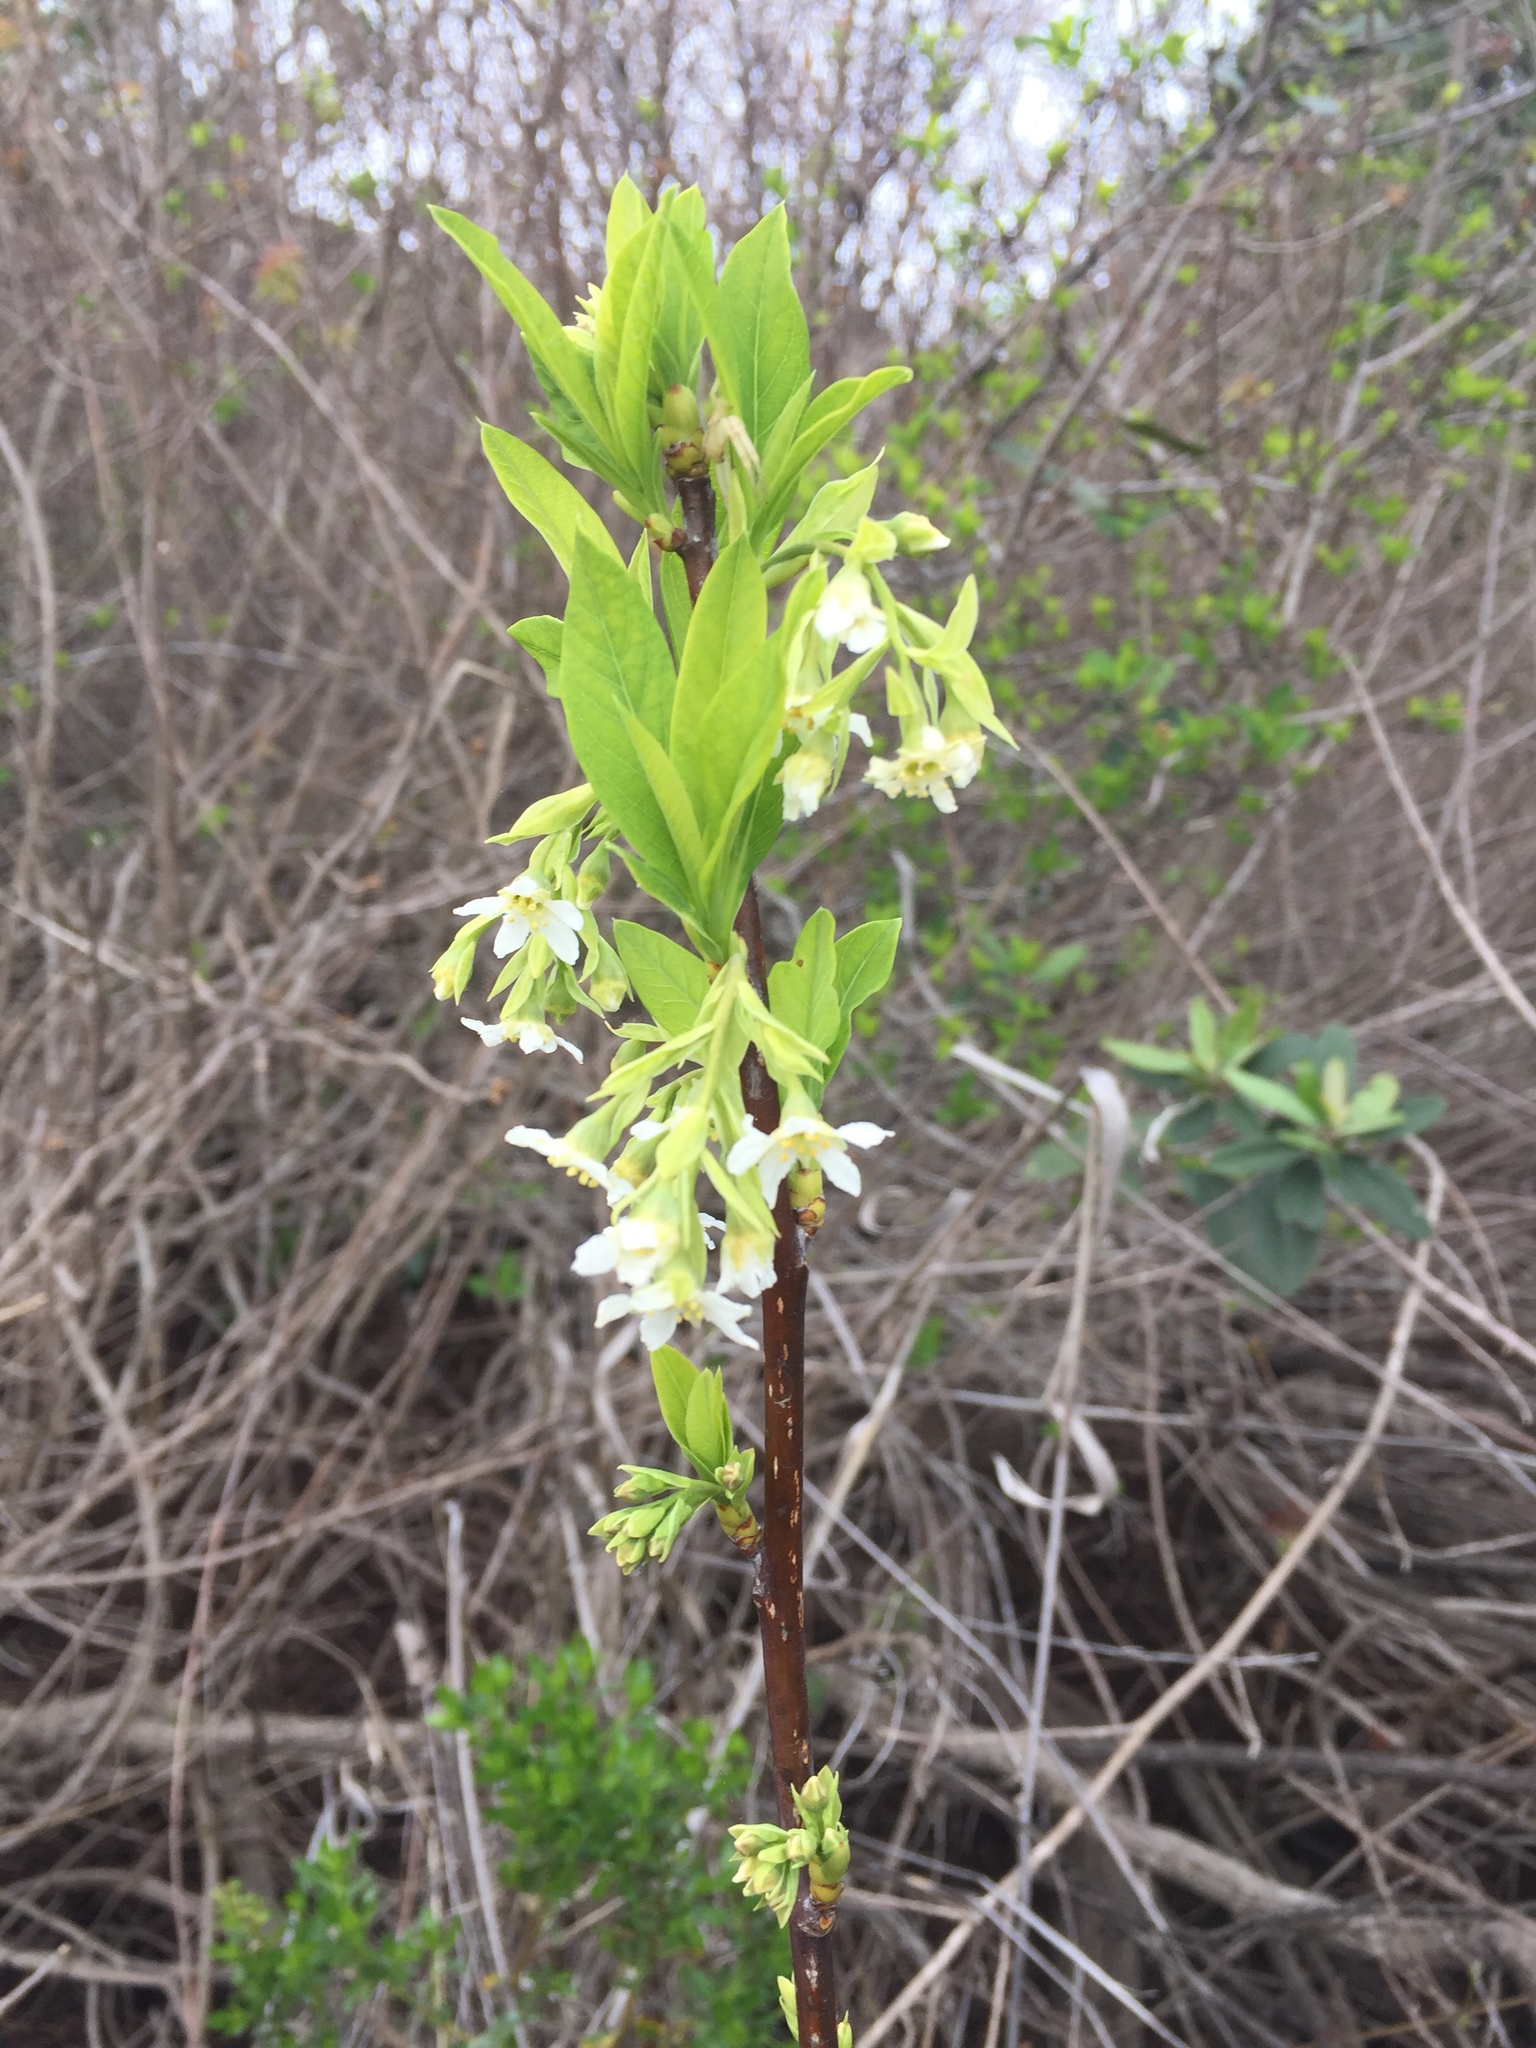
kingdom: Plantae
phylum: Tracheophyta
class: Magnoliopsida
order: Rosales
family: Rosaceae
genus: Oemleria
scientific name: Oemleria cerasiformis
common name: Osoberry
